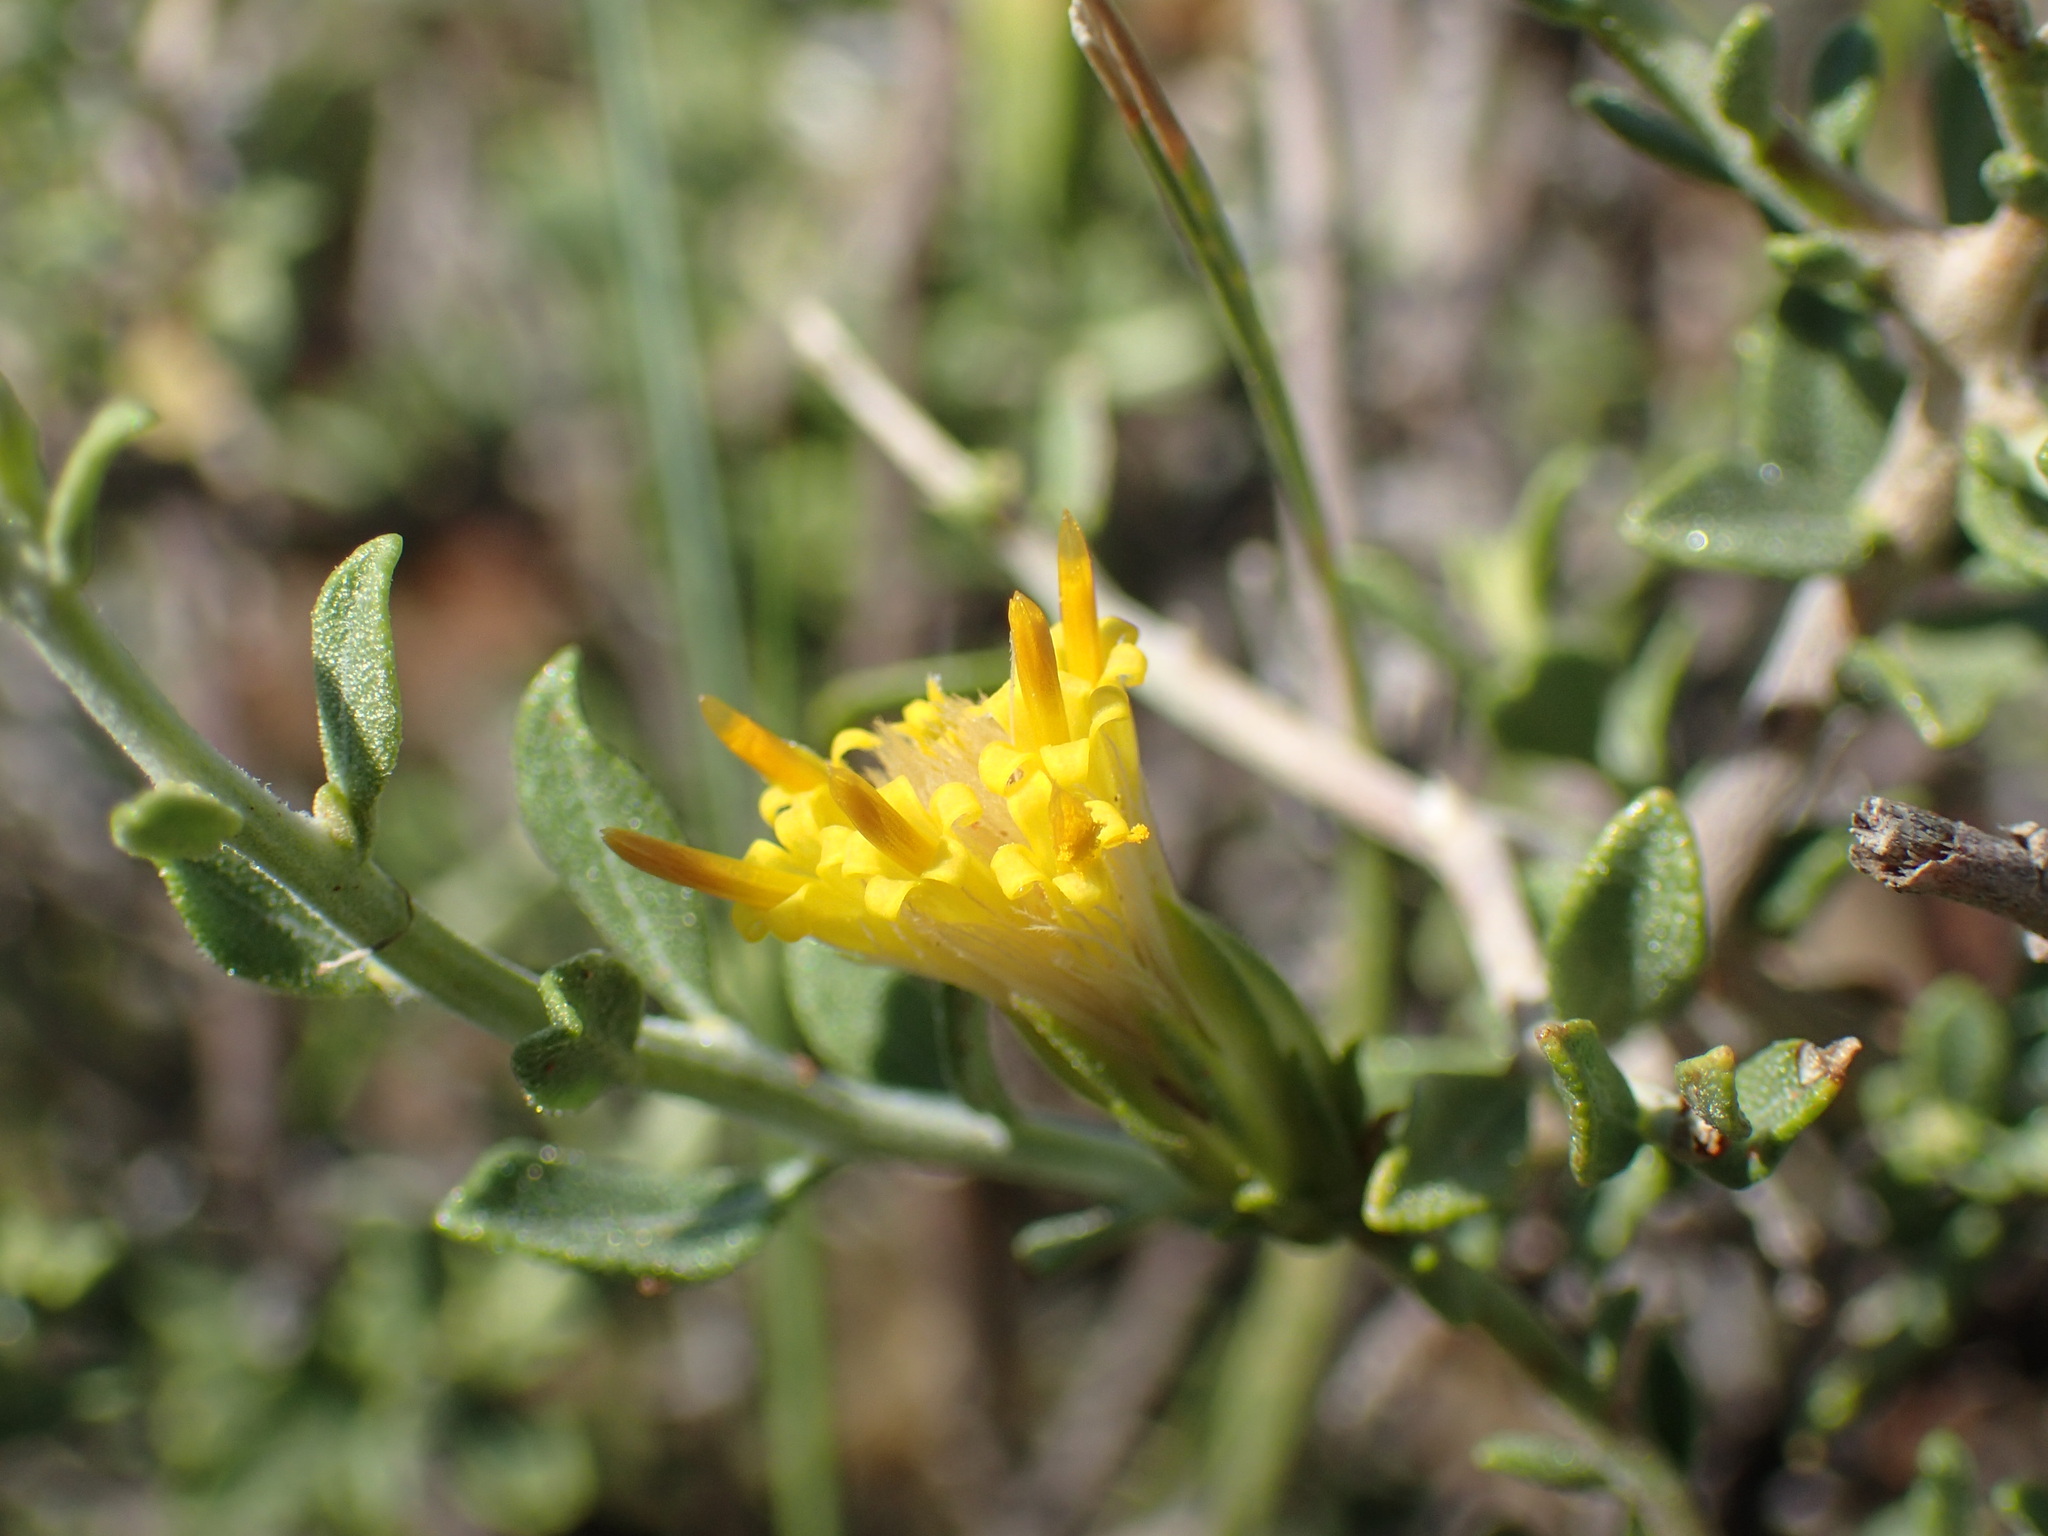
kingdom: Plantae
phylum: Tracheophyta
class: Magnoliopsida
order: Asterales
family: Asteraceae
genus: Pegolettia
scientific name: Pegolettia retrofracta
